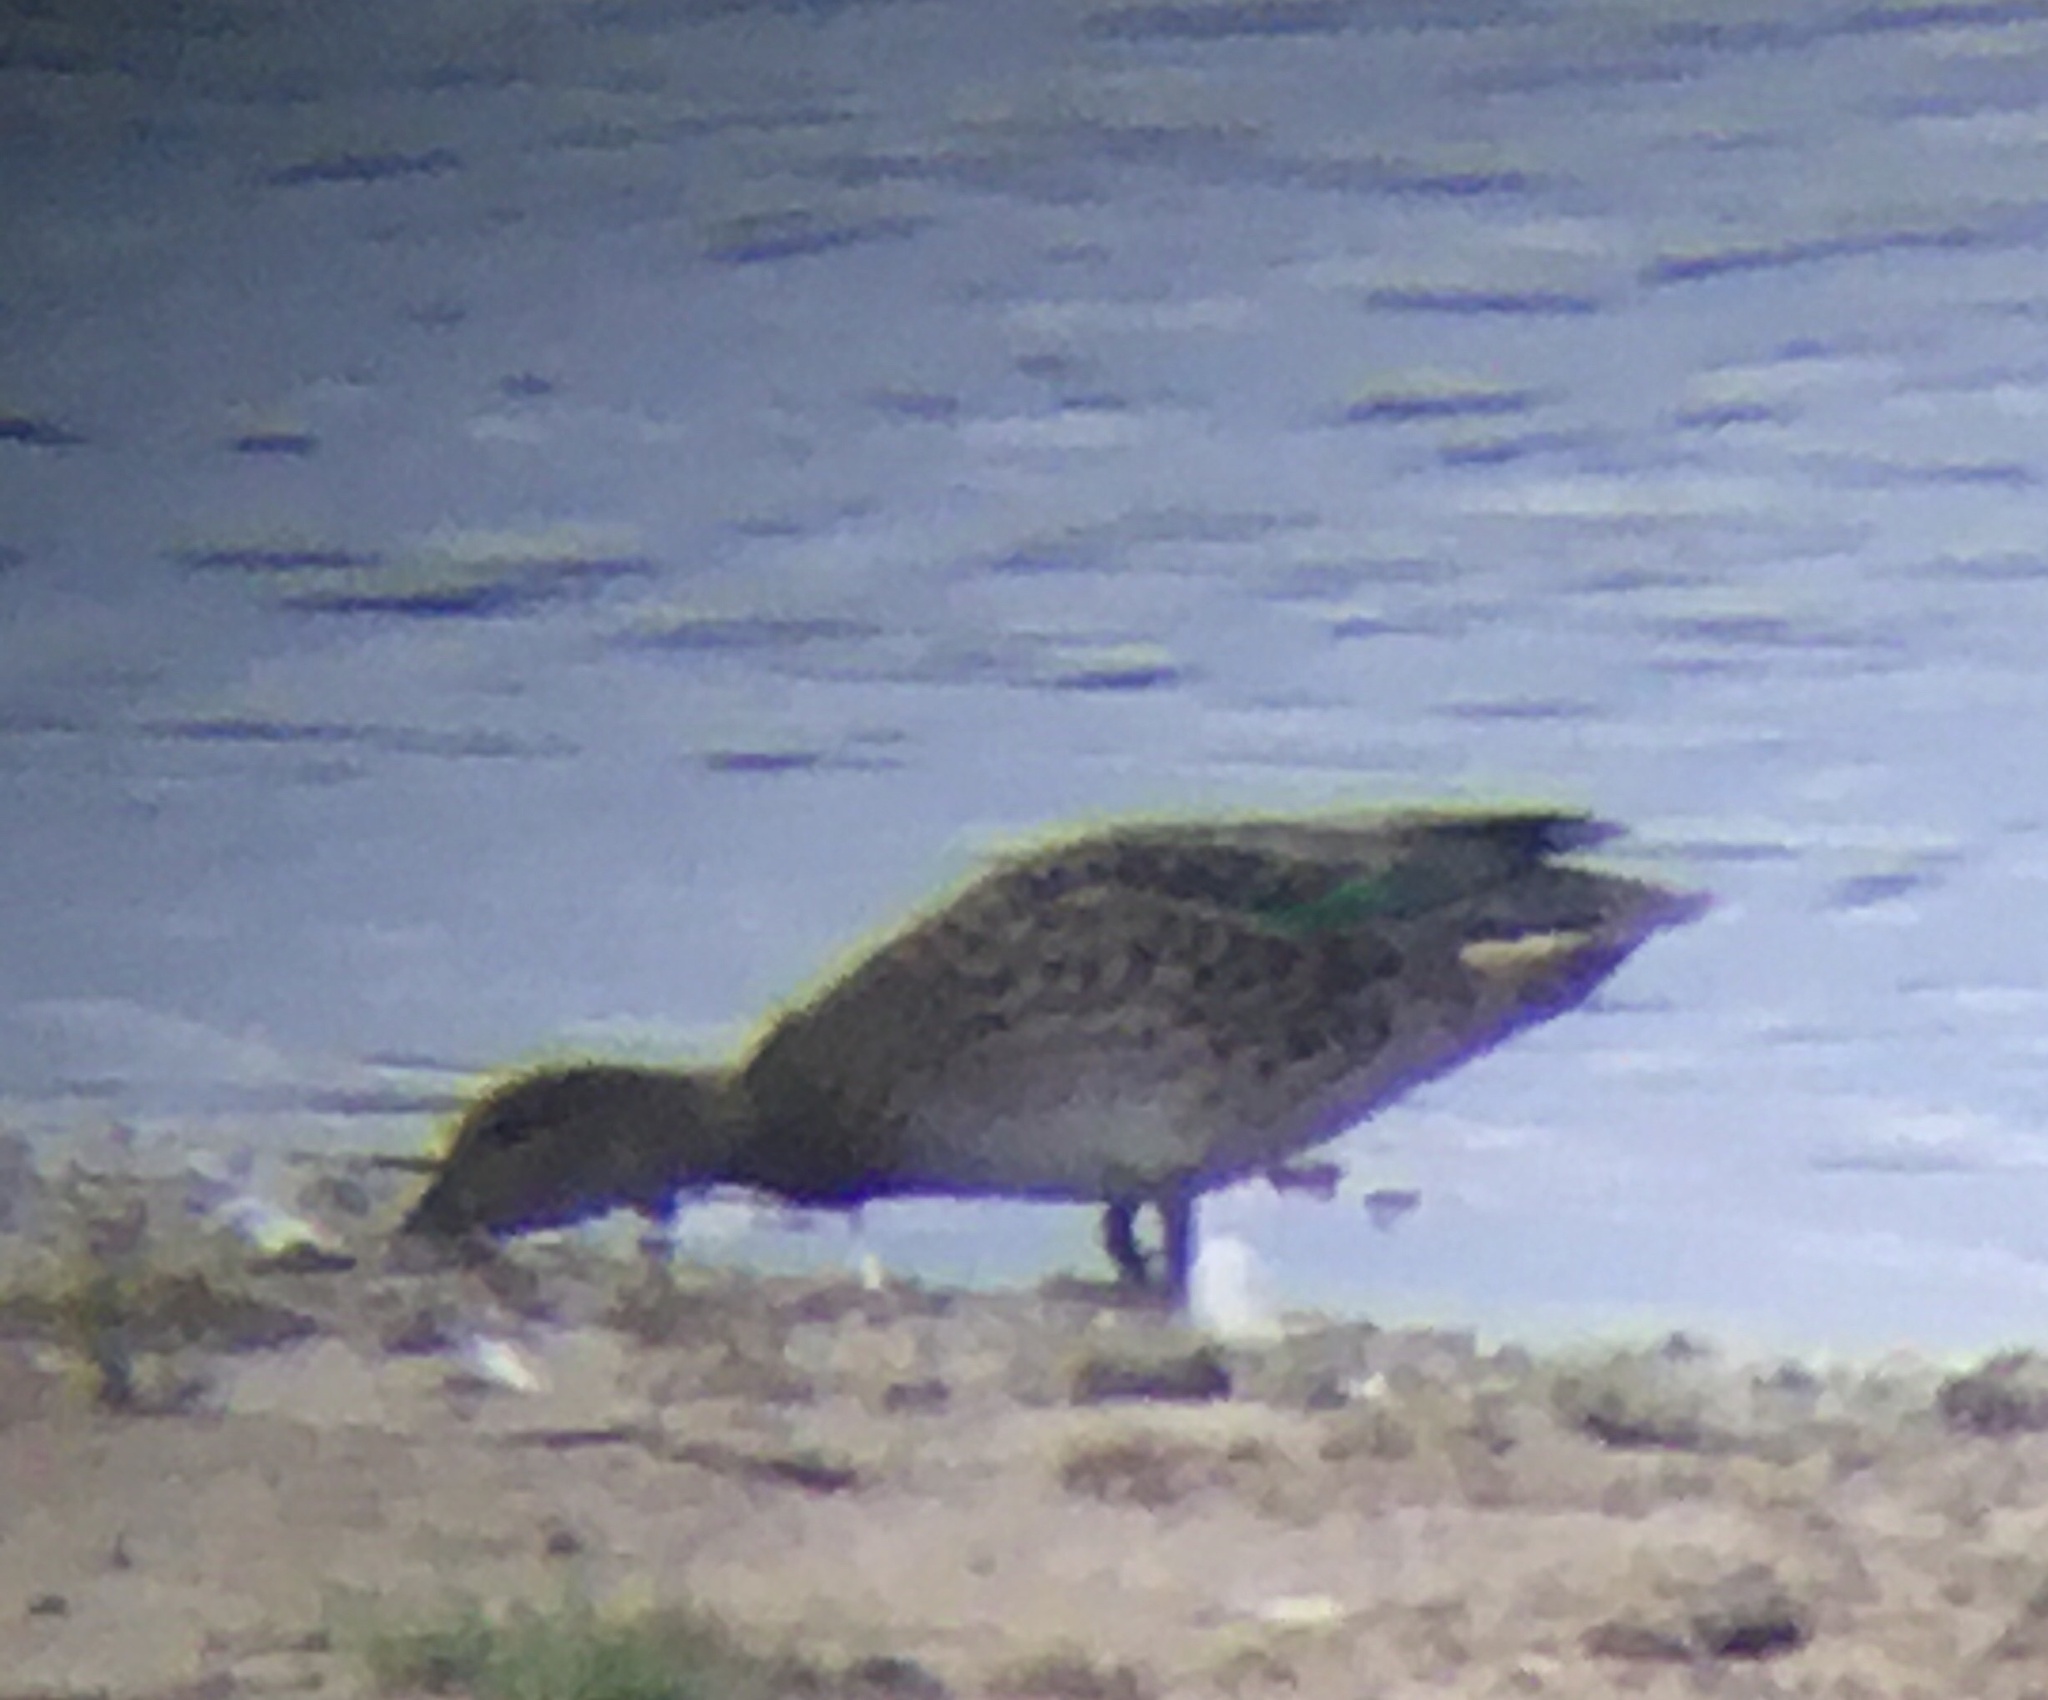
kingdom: Animalia
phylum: Chordata
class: Aves
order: Anseriformes
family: Anatidae
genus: Anas
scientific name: Anas crecca
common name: Eurasian teal
